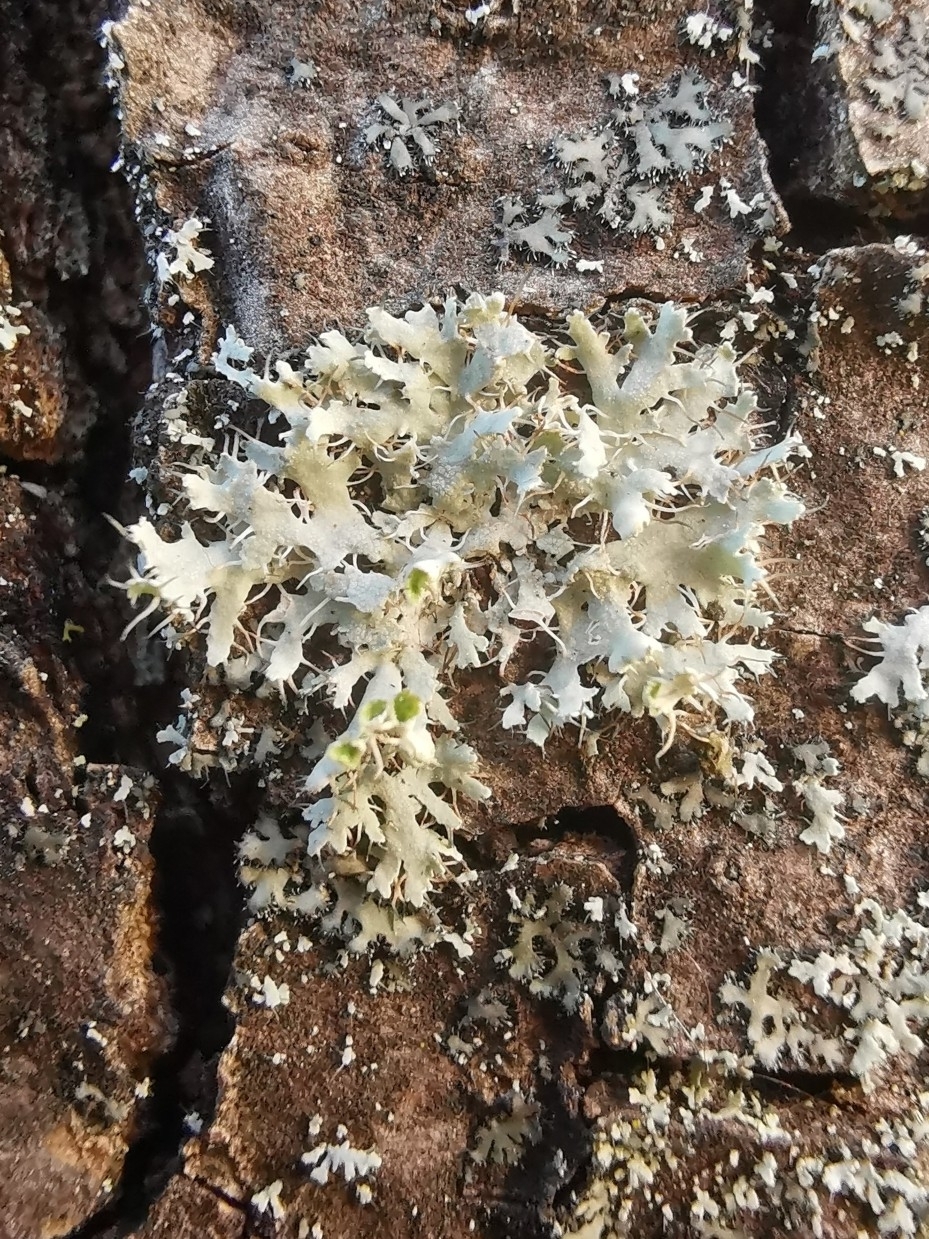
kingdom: Fungi
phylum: Ascomycota
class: Lecanoromycetes
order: Caliciales
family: Physciaceae
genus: Physcia
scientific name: Physcia adscendens
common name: Hooded rosette lichen
